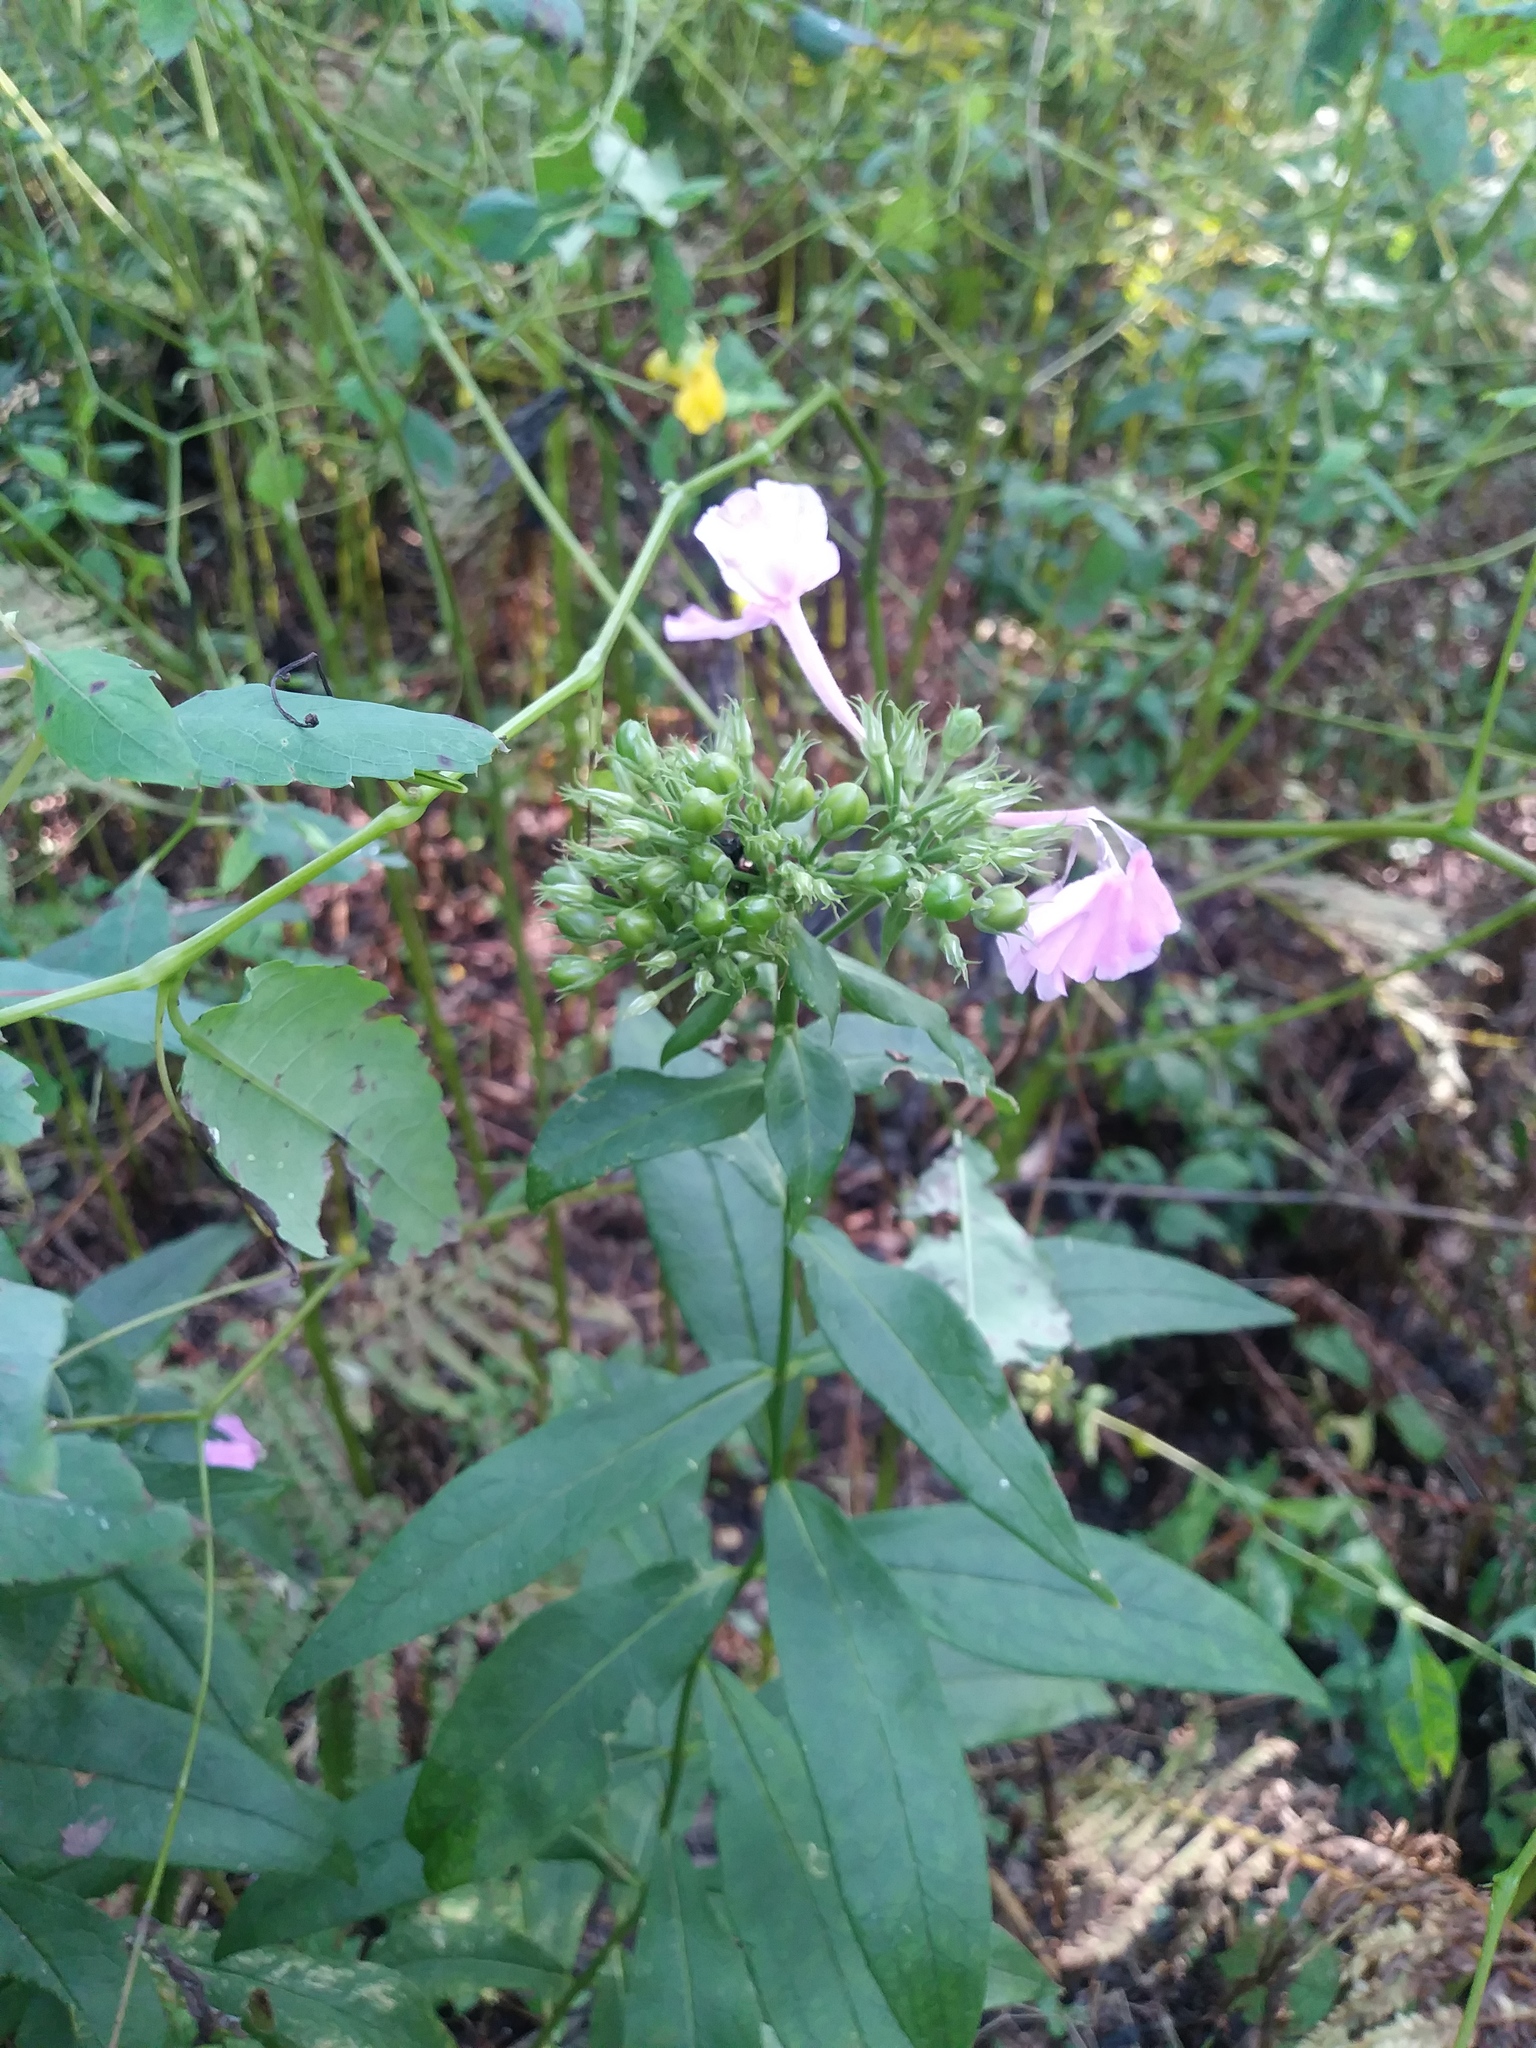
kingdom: Plantae
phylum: Tracheophyta
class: Magnoliopsida
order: Ericales
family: Polemoniaceae
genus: Phlox
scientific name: Phlox paniculata
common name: Fall phlox
